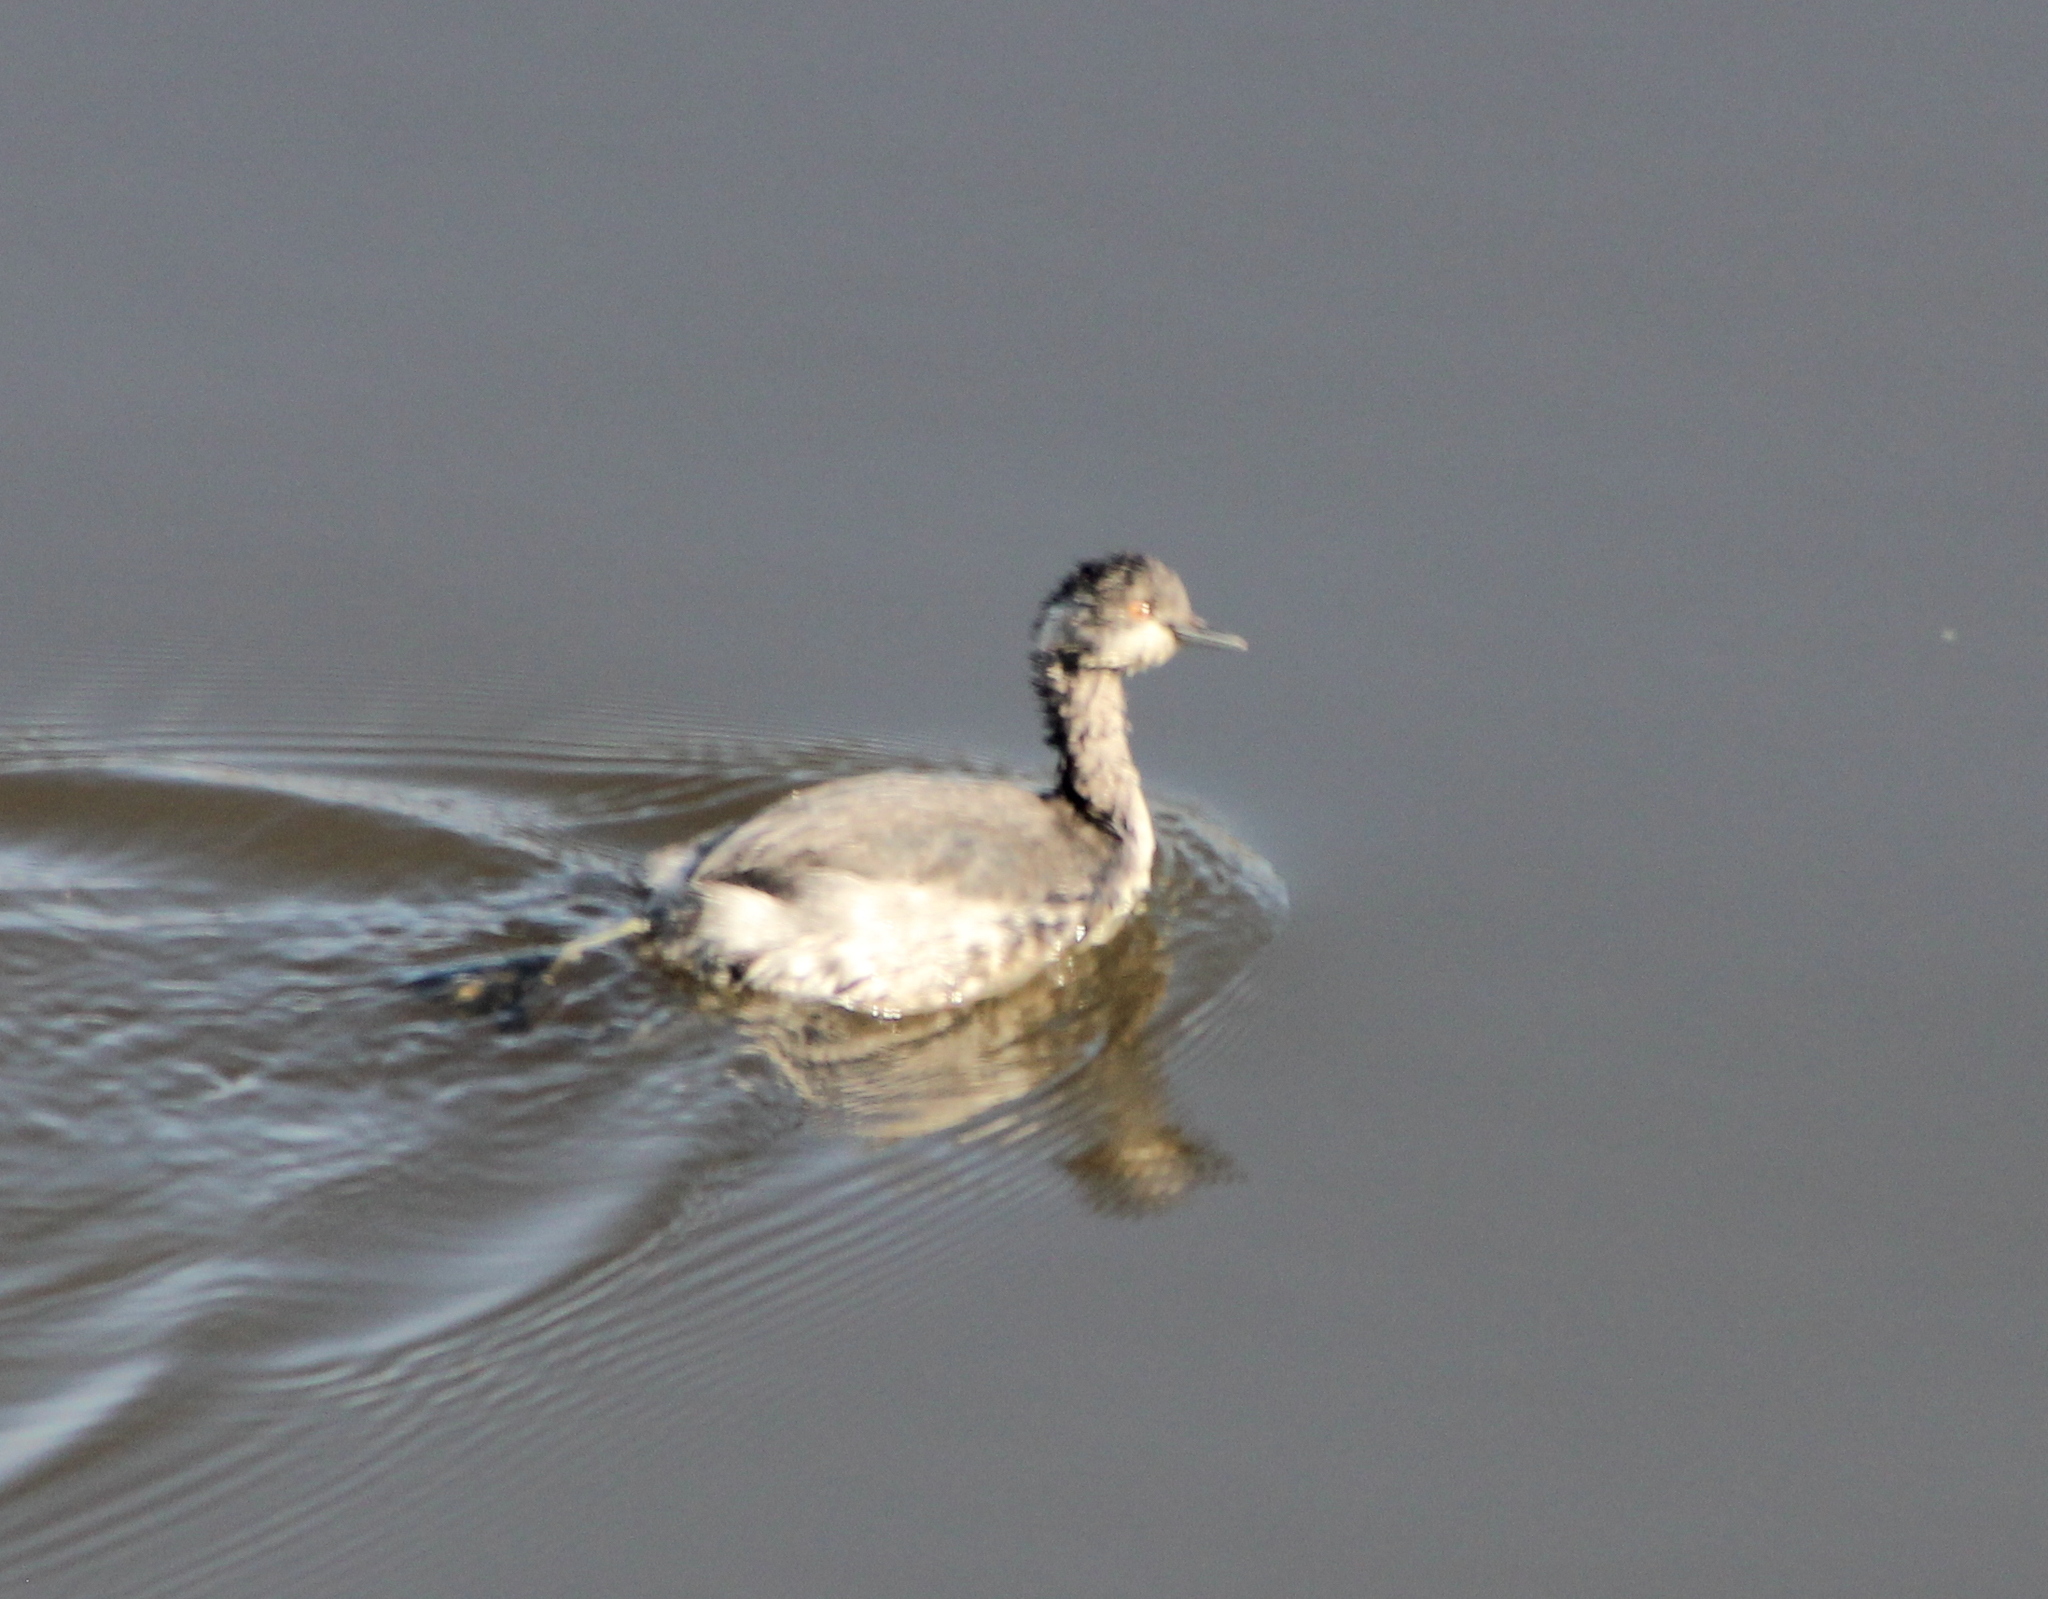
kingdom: Animalia
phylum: Chordata
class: Aves
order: Podicipediformes
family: Podicipedidae
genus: Podiceps
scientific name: Podiceps nigricollis
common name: Black-necked grebe
